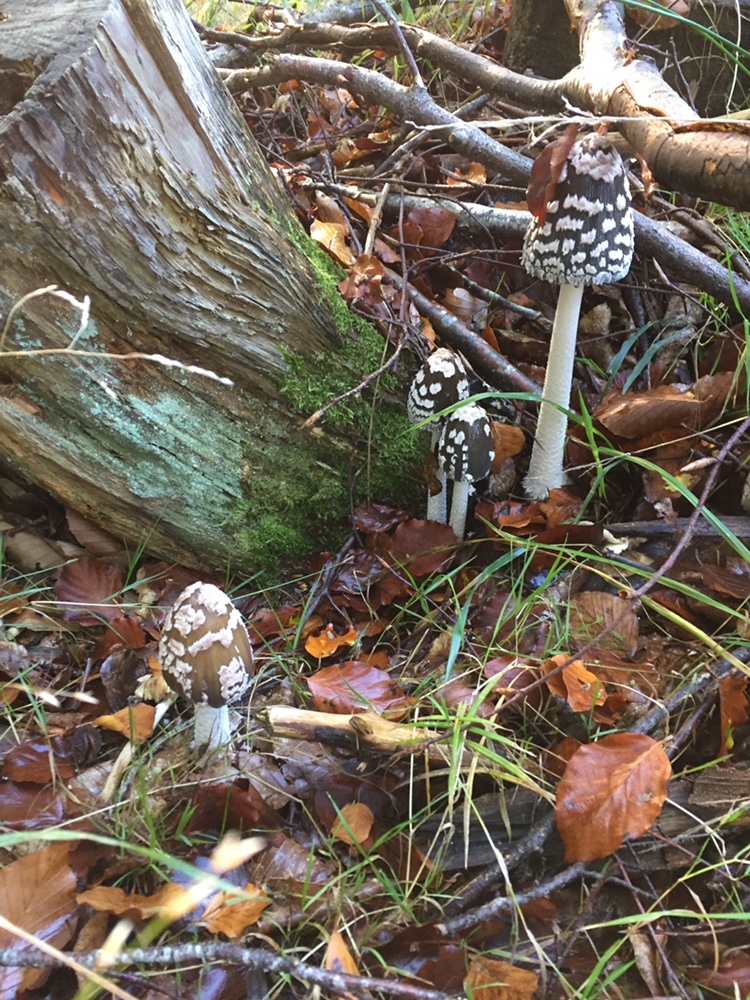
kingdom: Fungi
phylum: Basidiomycota
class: Agaricomycetes
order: Agaricales
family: Psathyrellaceae
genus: Coprinopsis
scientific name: Coprinopsis picacea
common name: Magpie inkcap
